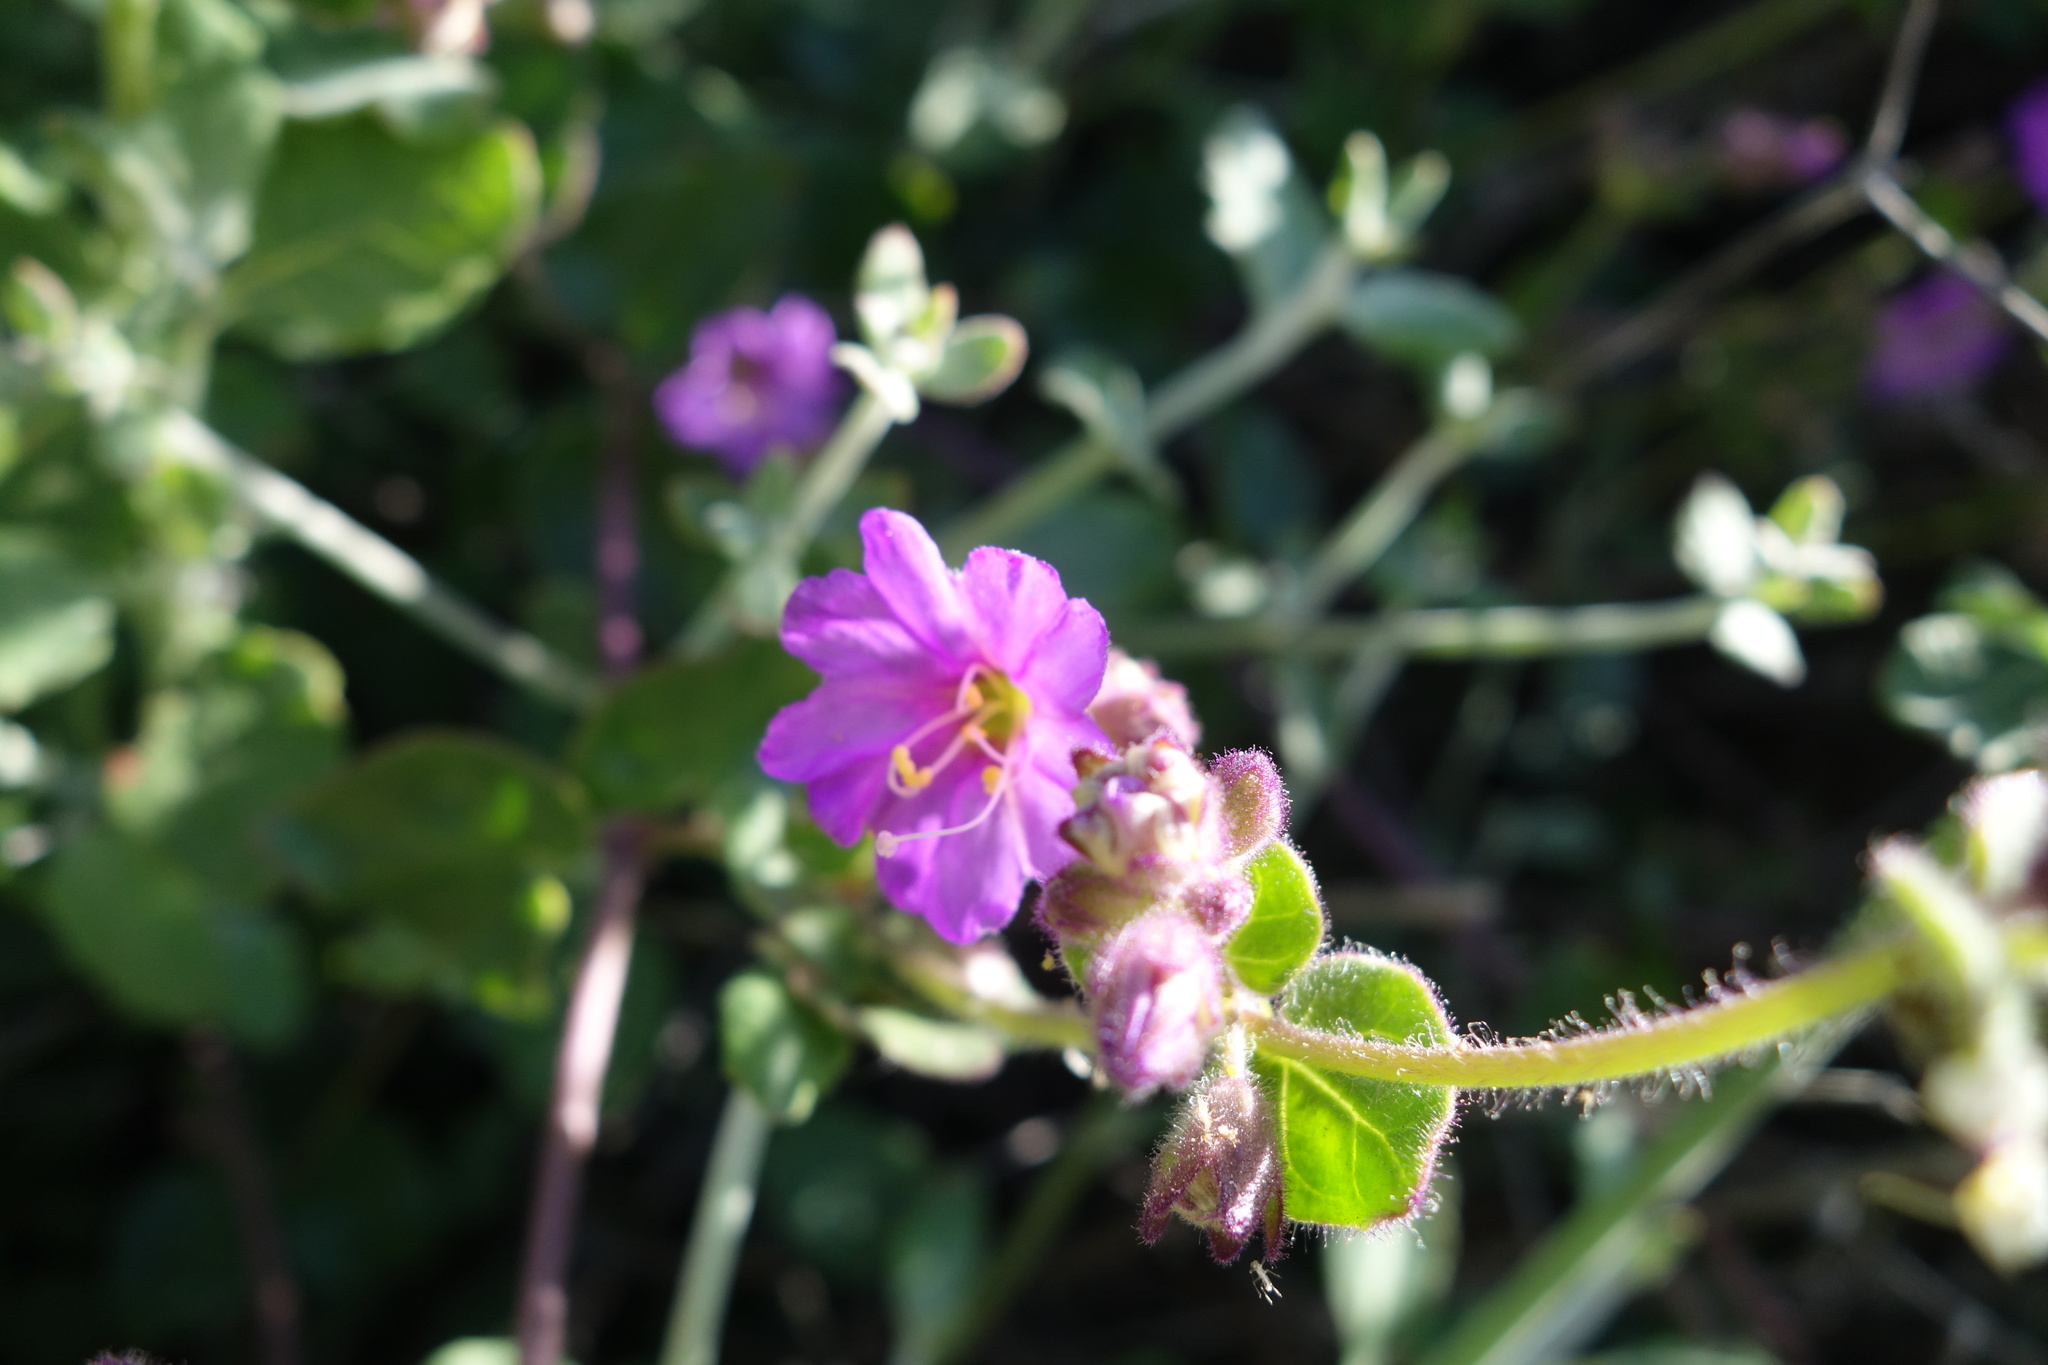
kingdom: Plantae
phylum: Tracheophyta
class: Magnoliopsida
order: Caryophyllales
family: Nyctaginaceae
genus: Mirabilis
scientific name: Mirabilis laevis
